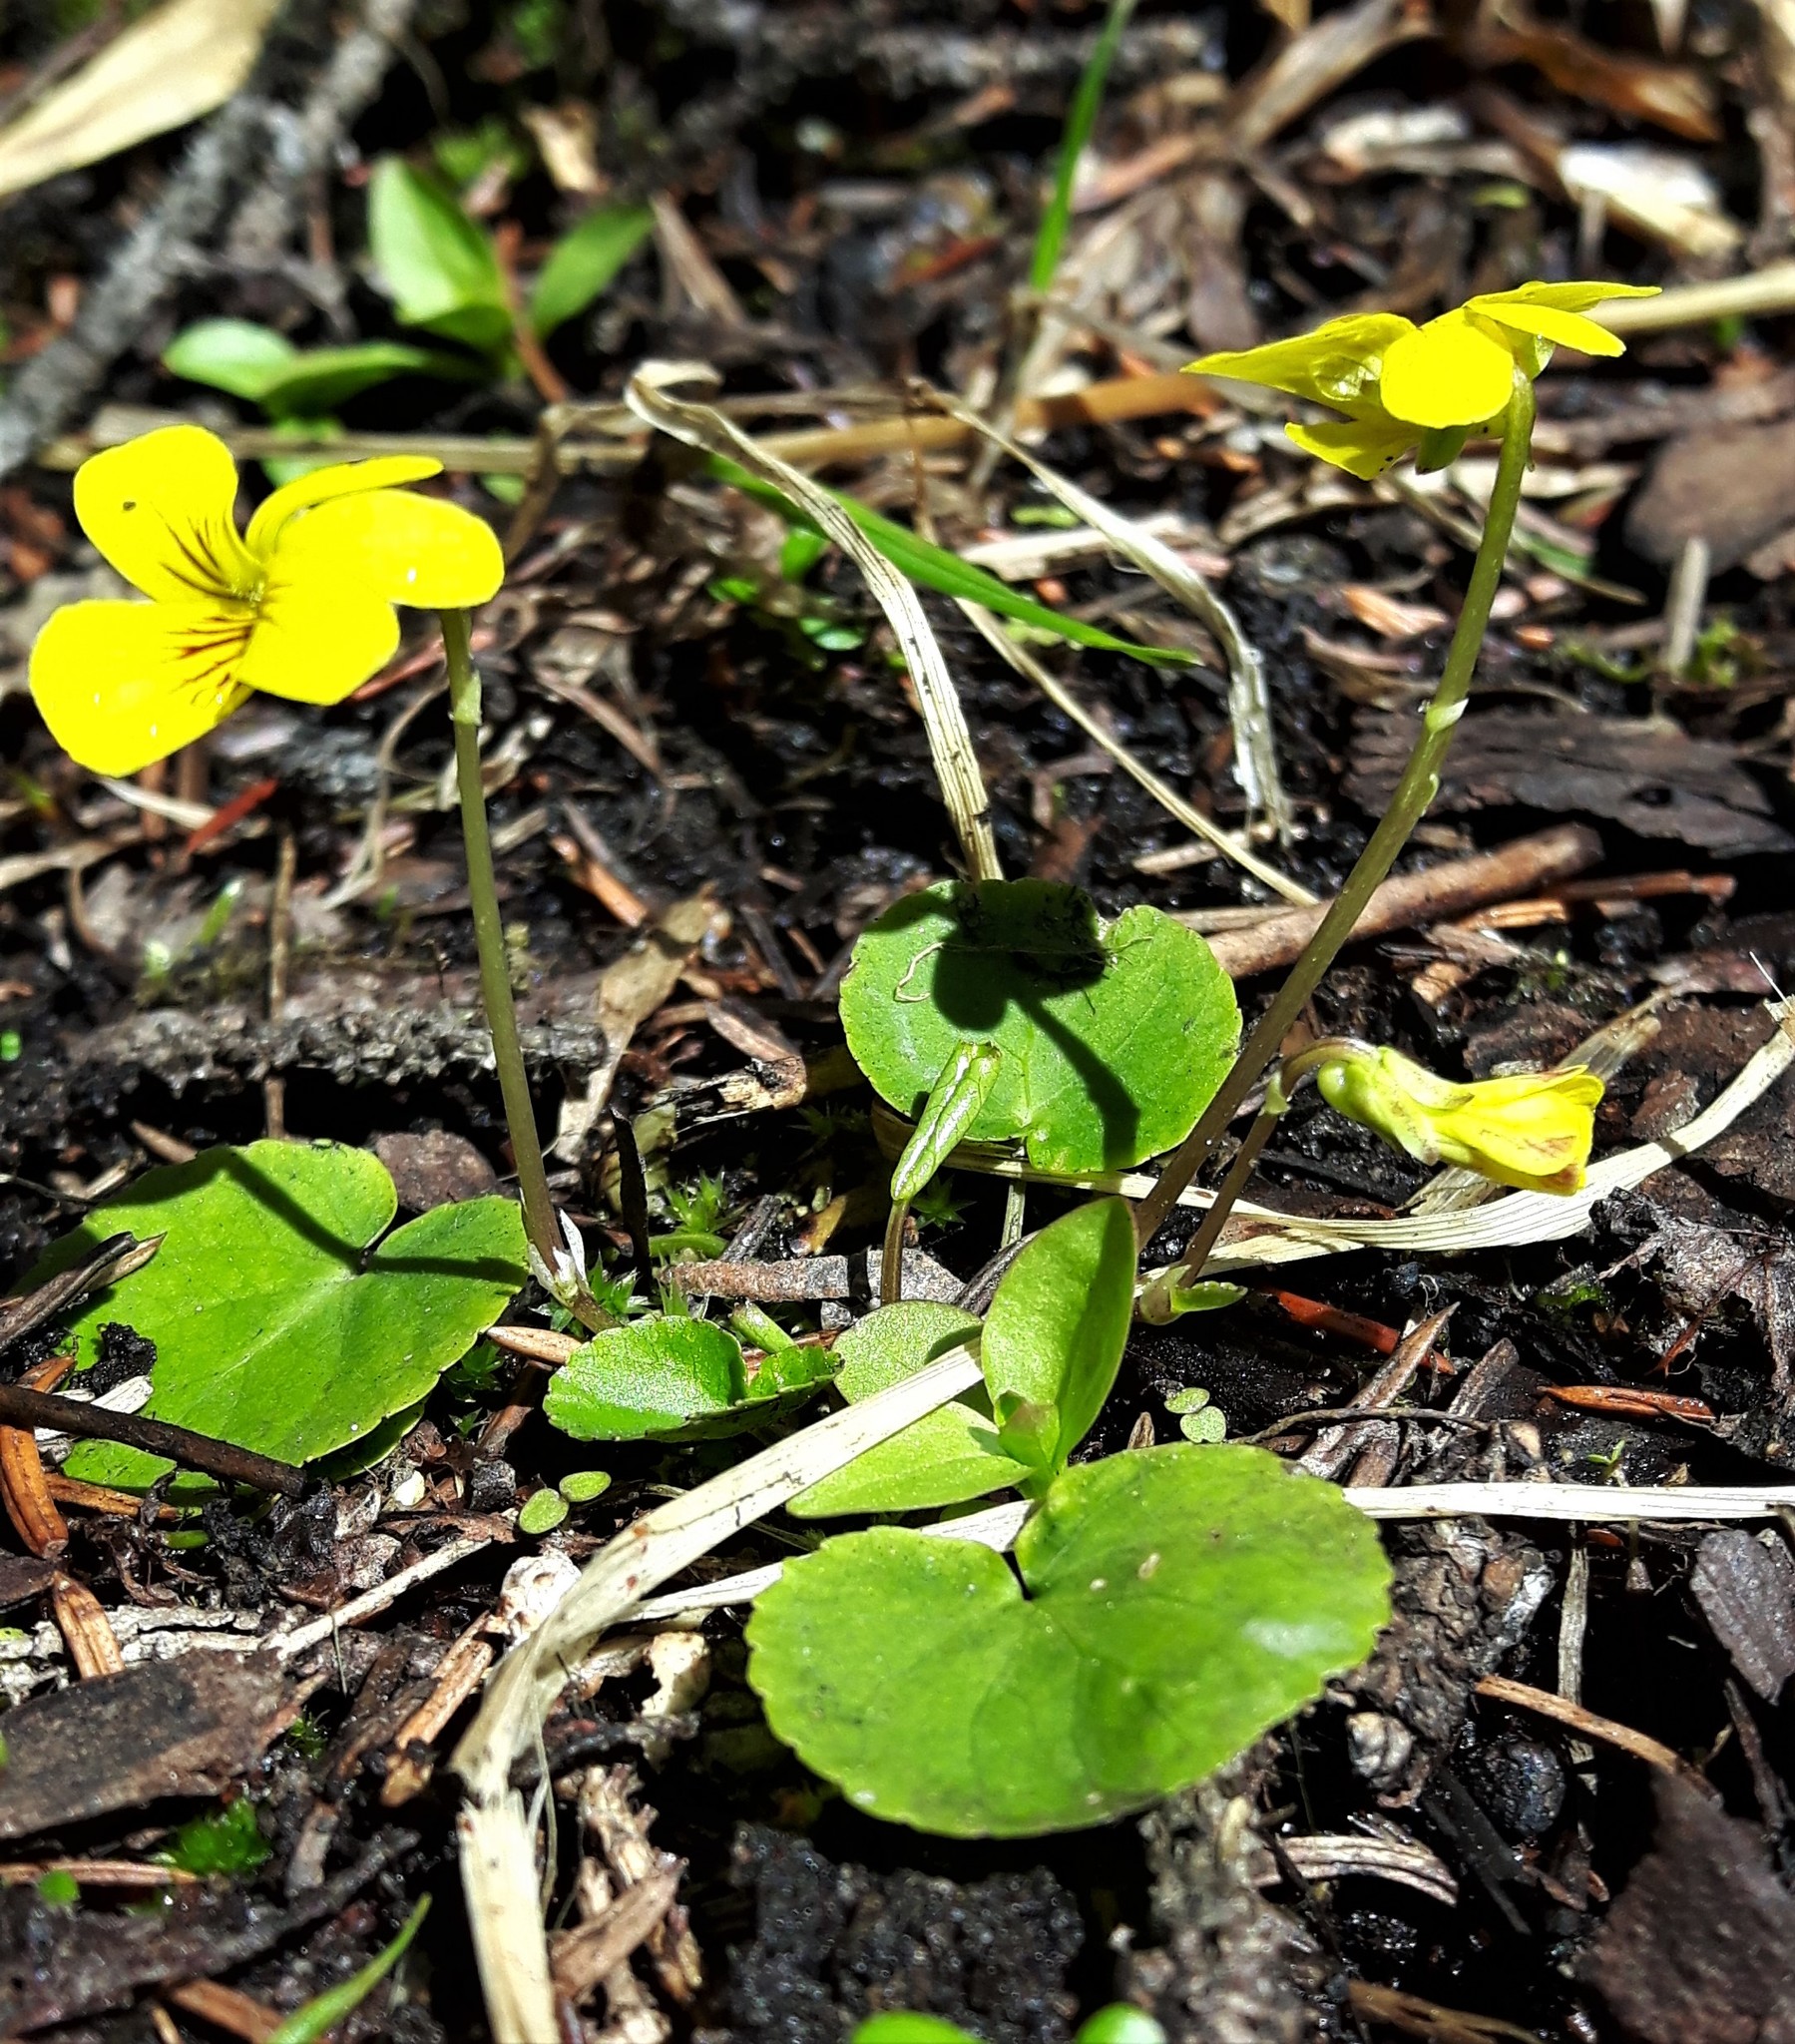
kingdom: Plantae
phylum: Tracheophyta
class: Magnoliopsida
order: Malpighiales
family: Violaceae
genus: Viola
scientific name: Viola orbiculata
